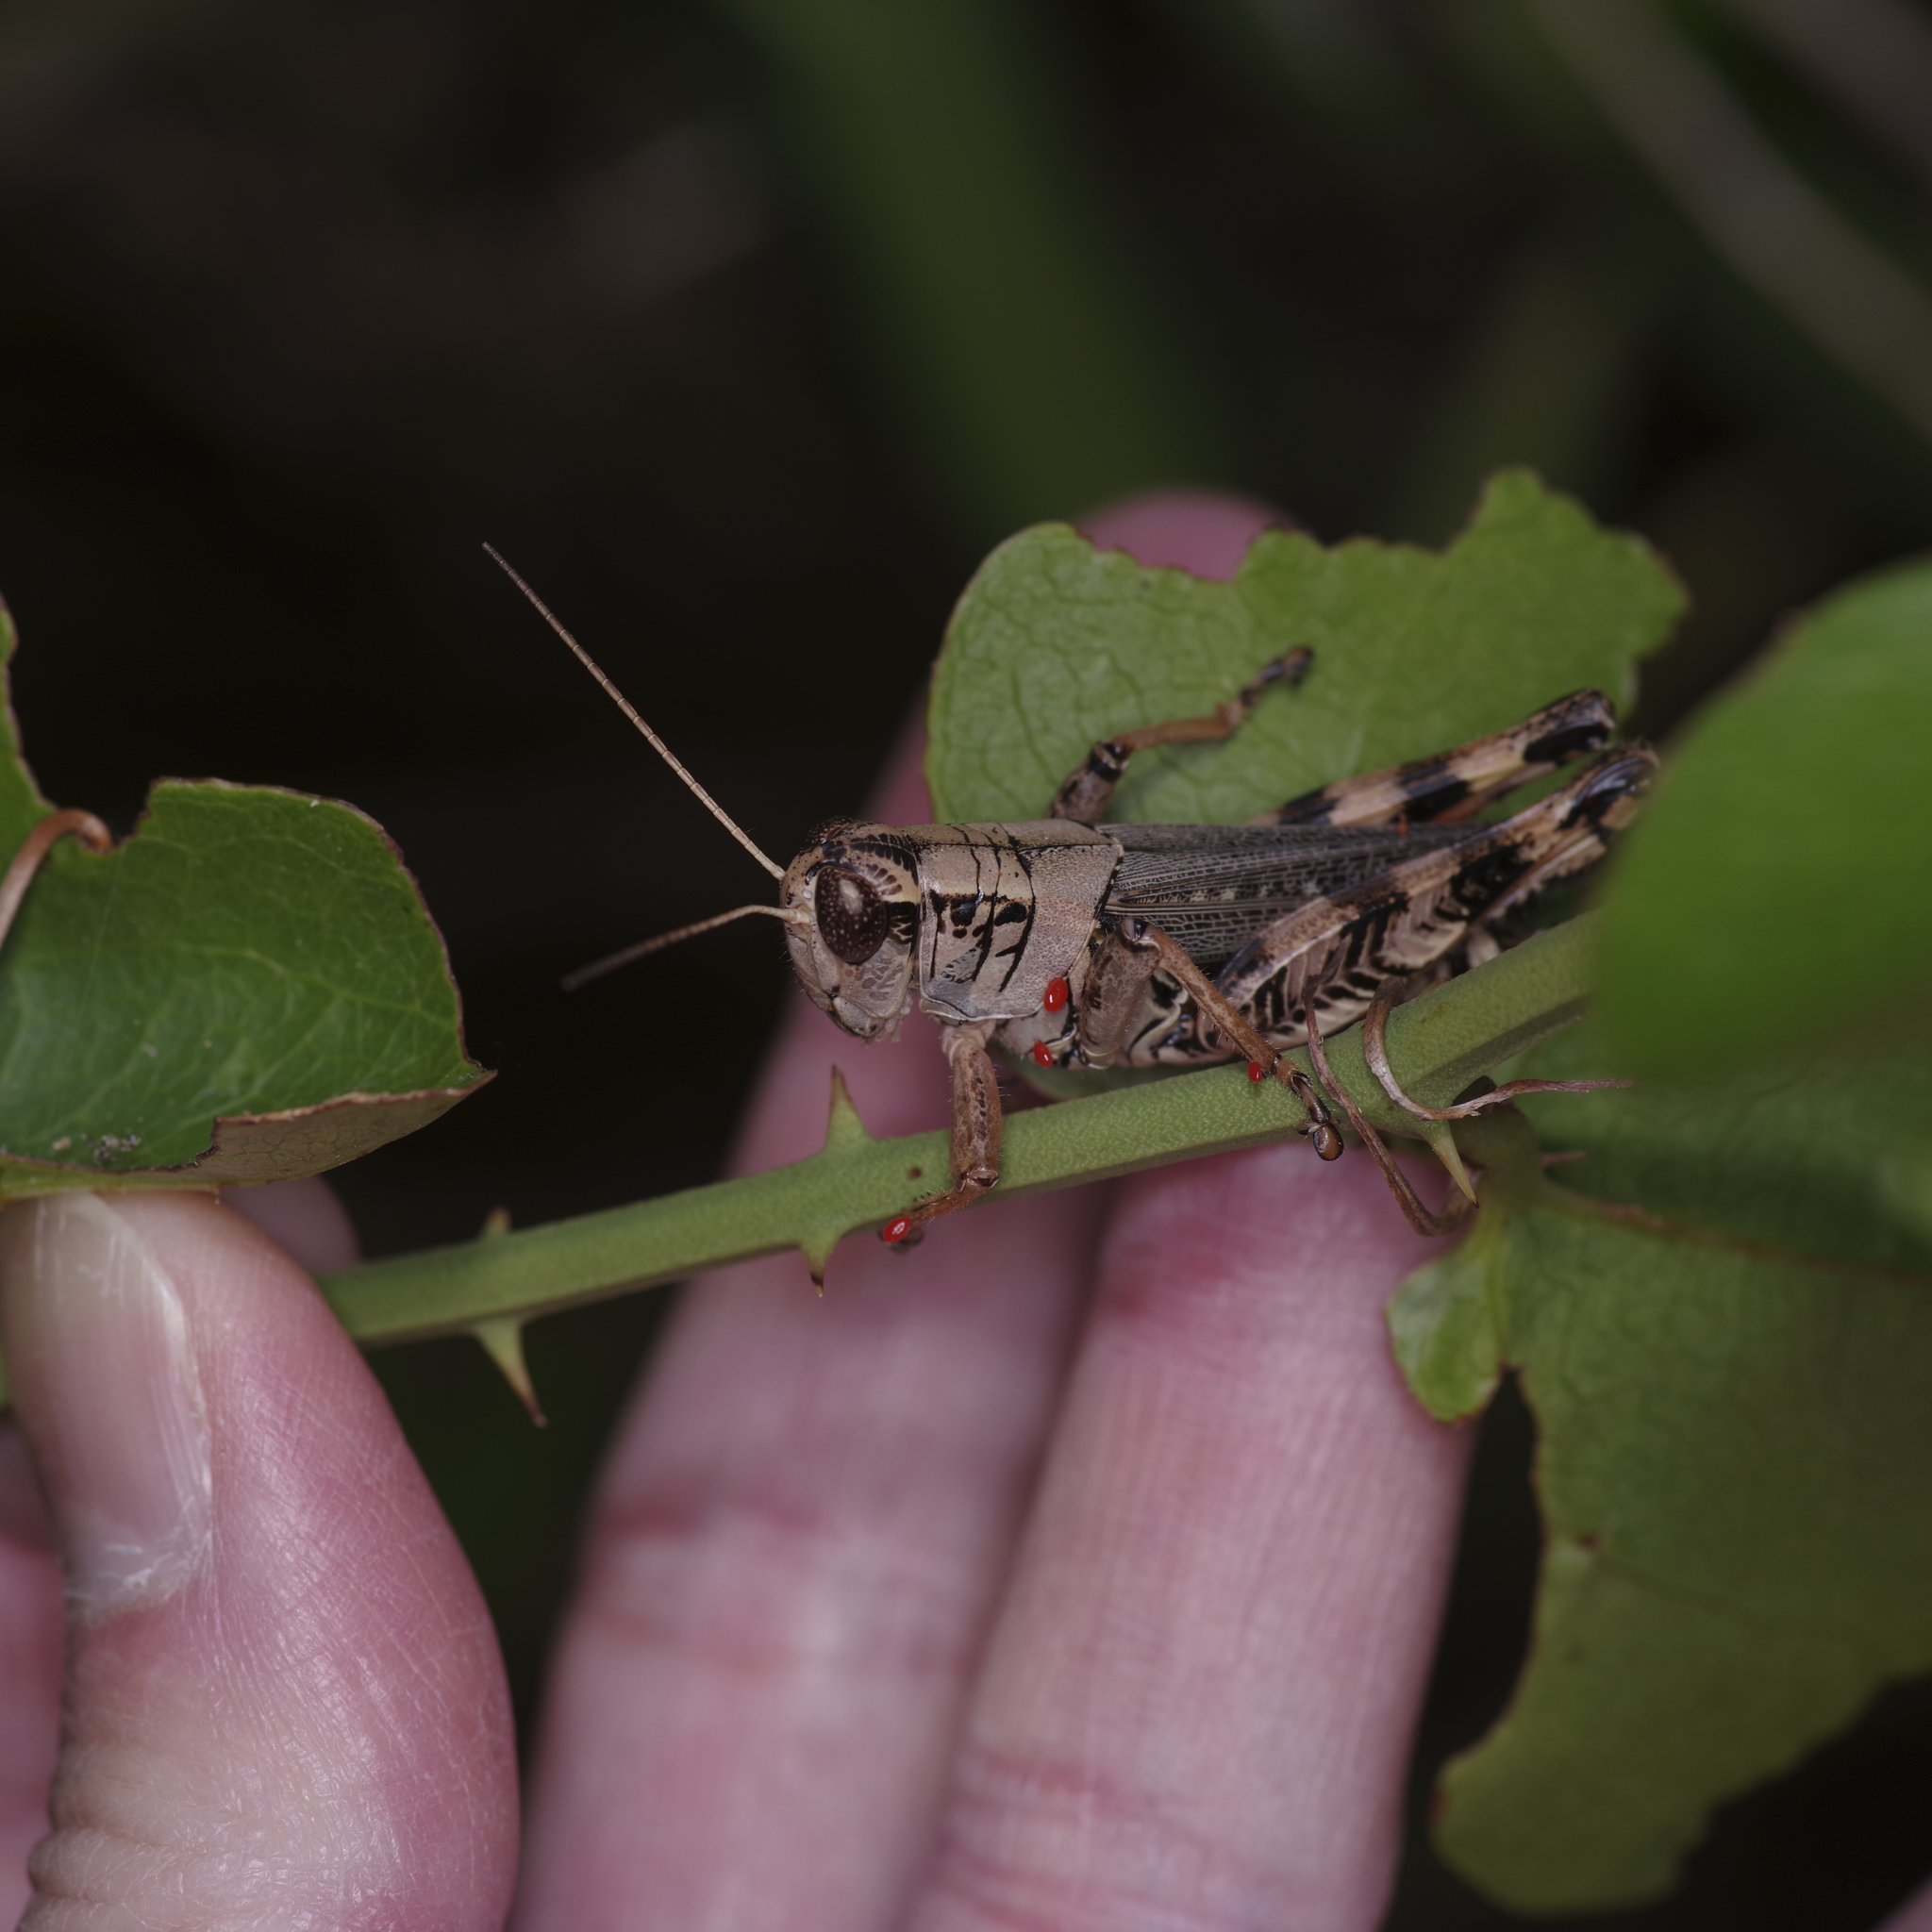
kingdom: Animalia
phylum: Arthropoda
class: Insecta
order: Orthoptera
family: Acrididae
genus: Melanoplus
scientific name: Melanoplus ponderosus
